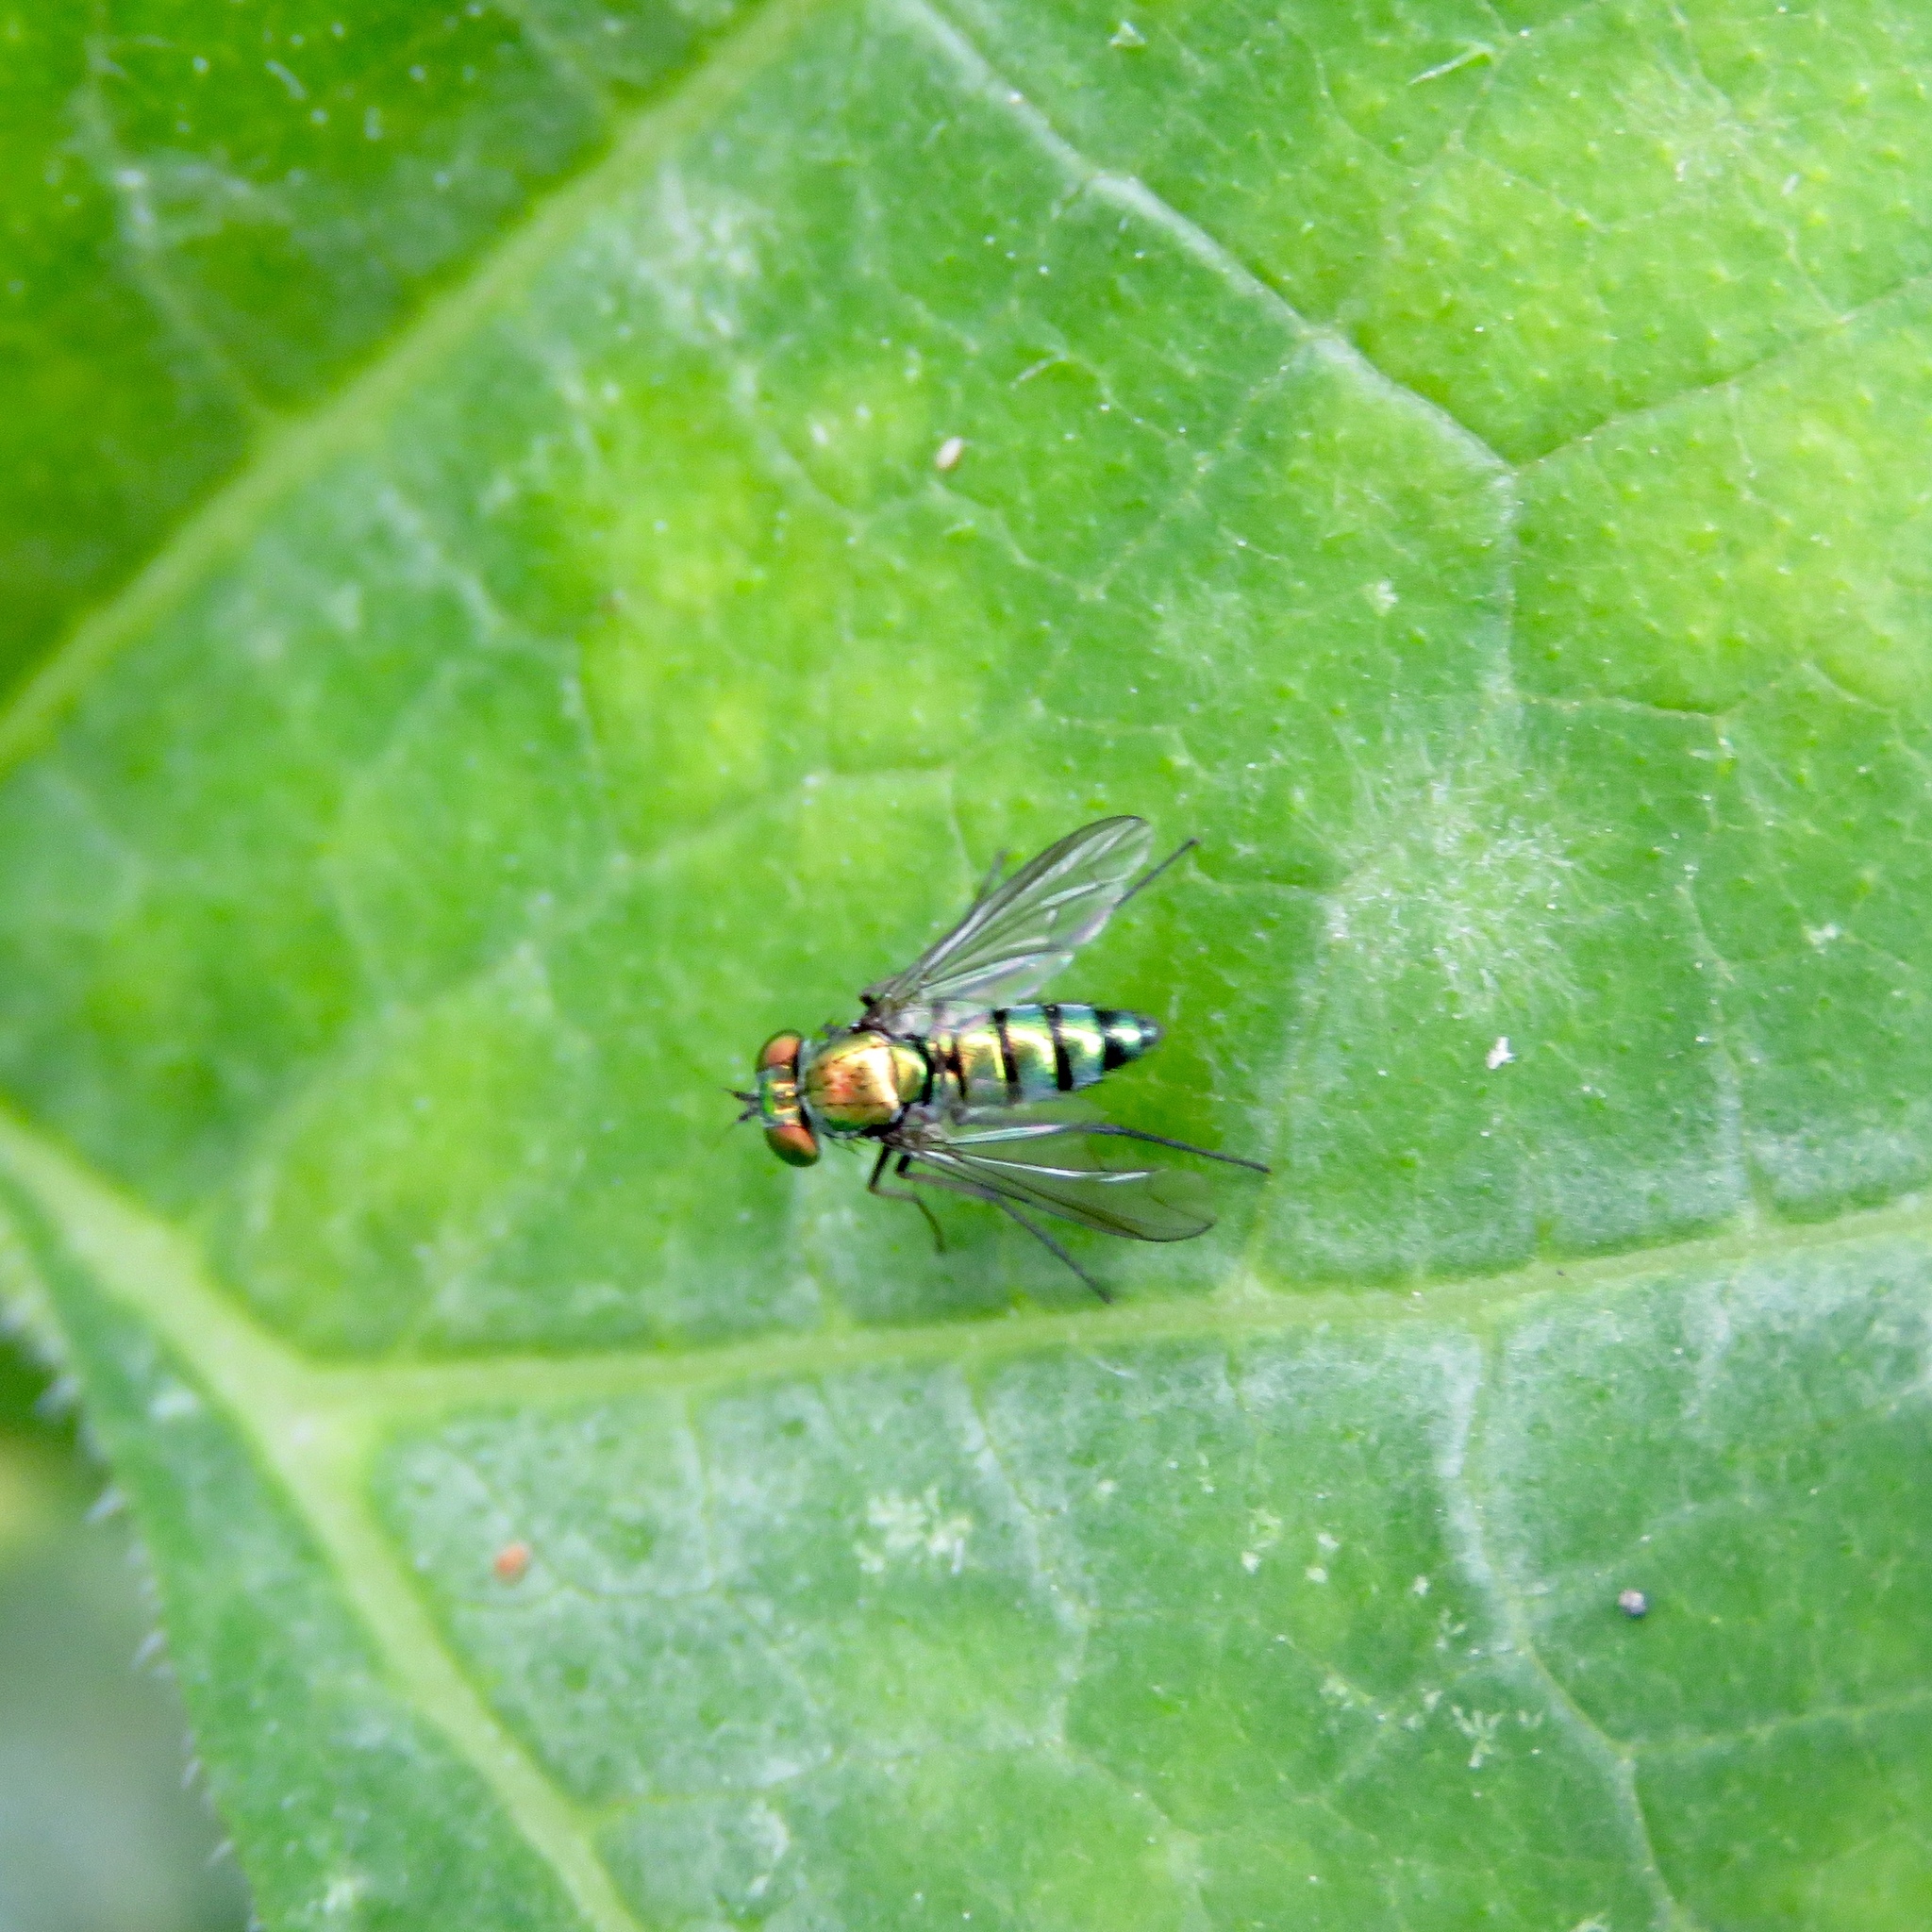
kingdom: Animalia
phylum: Arthropoda
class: Insecta
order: Diptera
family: Dolichopodidae
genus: Condylostylus
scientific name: Condylostylus longicornis
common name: Long-legged fly
